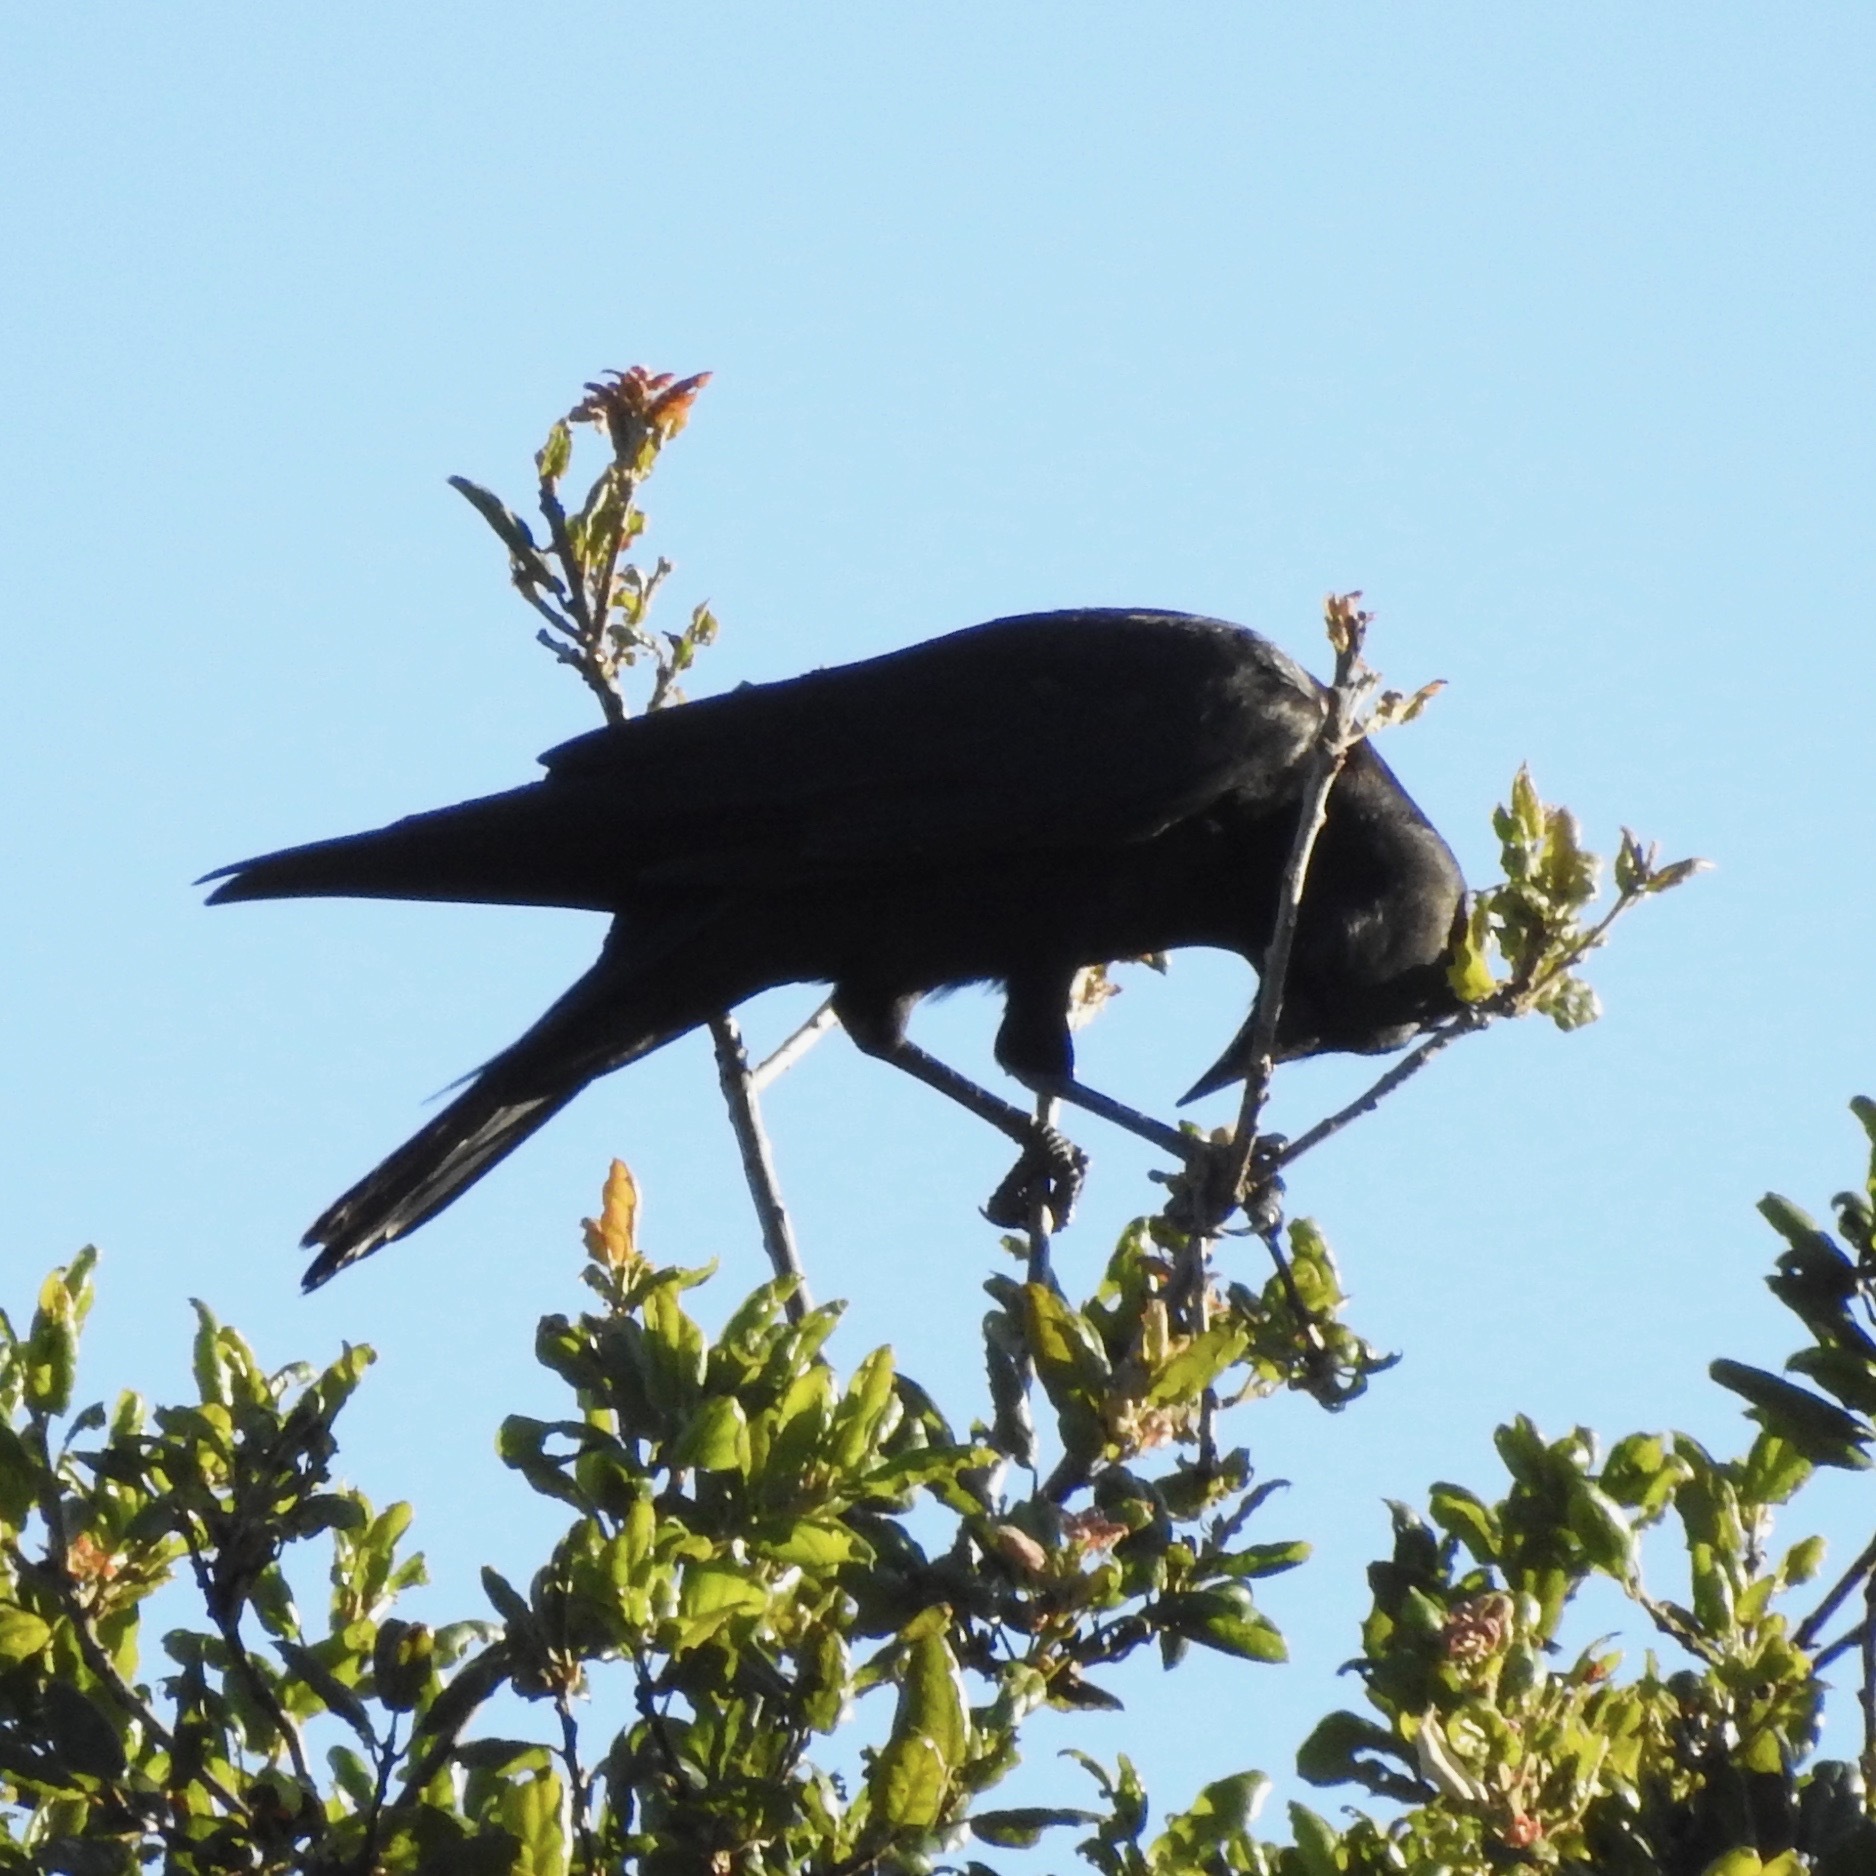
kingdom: Animalia
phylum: Chordata
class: Aves
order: Passeriformes
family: Corvidae
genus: Corvus
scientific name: Corvus brachyrhynchos
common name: American crow
